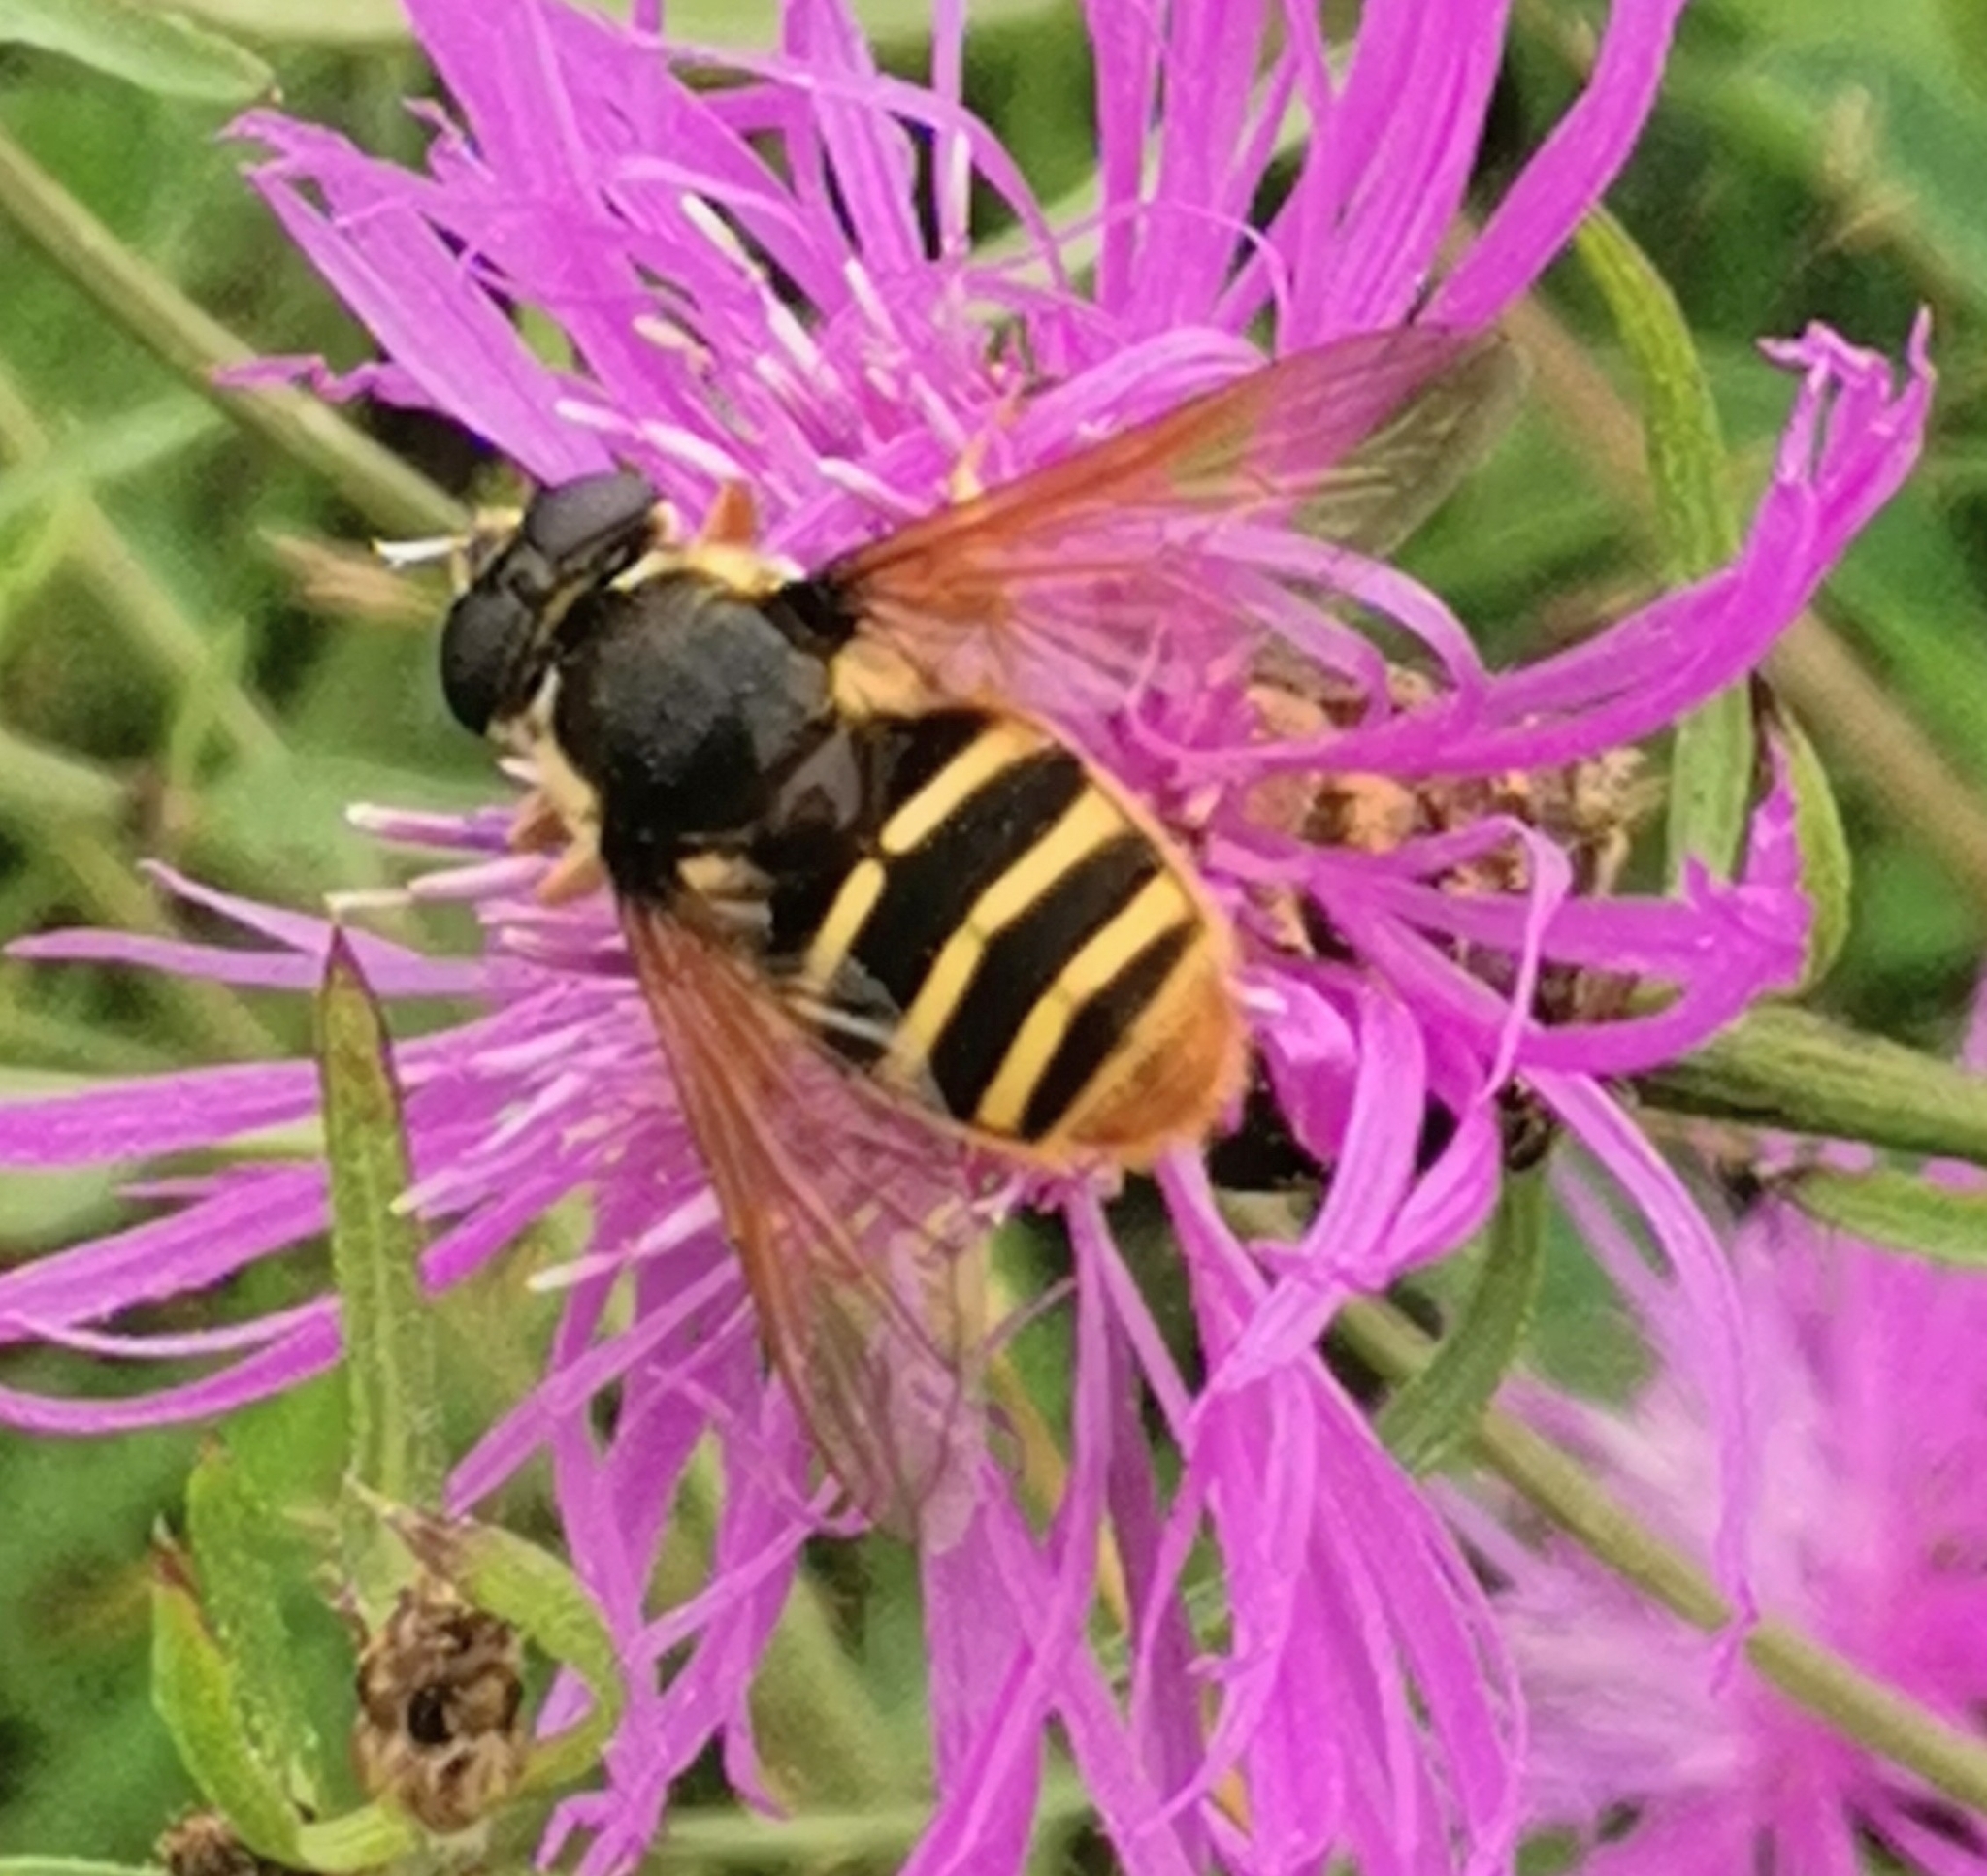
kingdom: Animalia
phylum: Arthropoda
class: Insecta
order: Diptera
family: Syrphidae
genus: Sericomyia
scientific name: Sericomyia silentis
